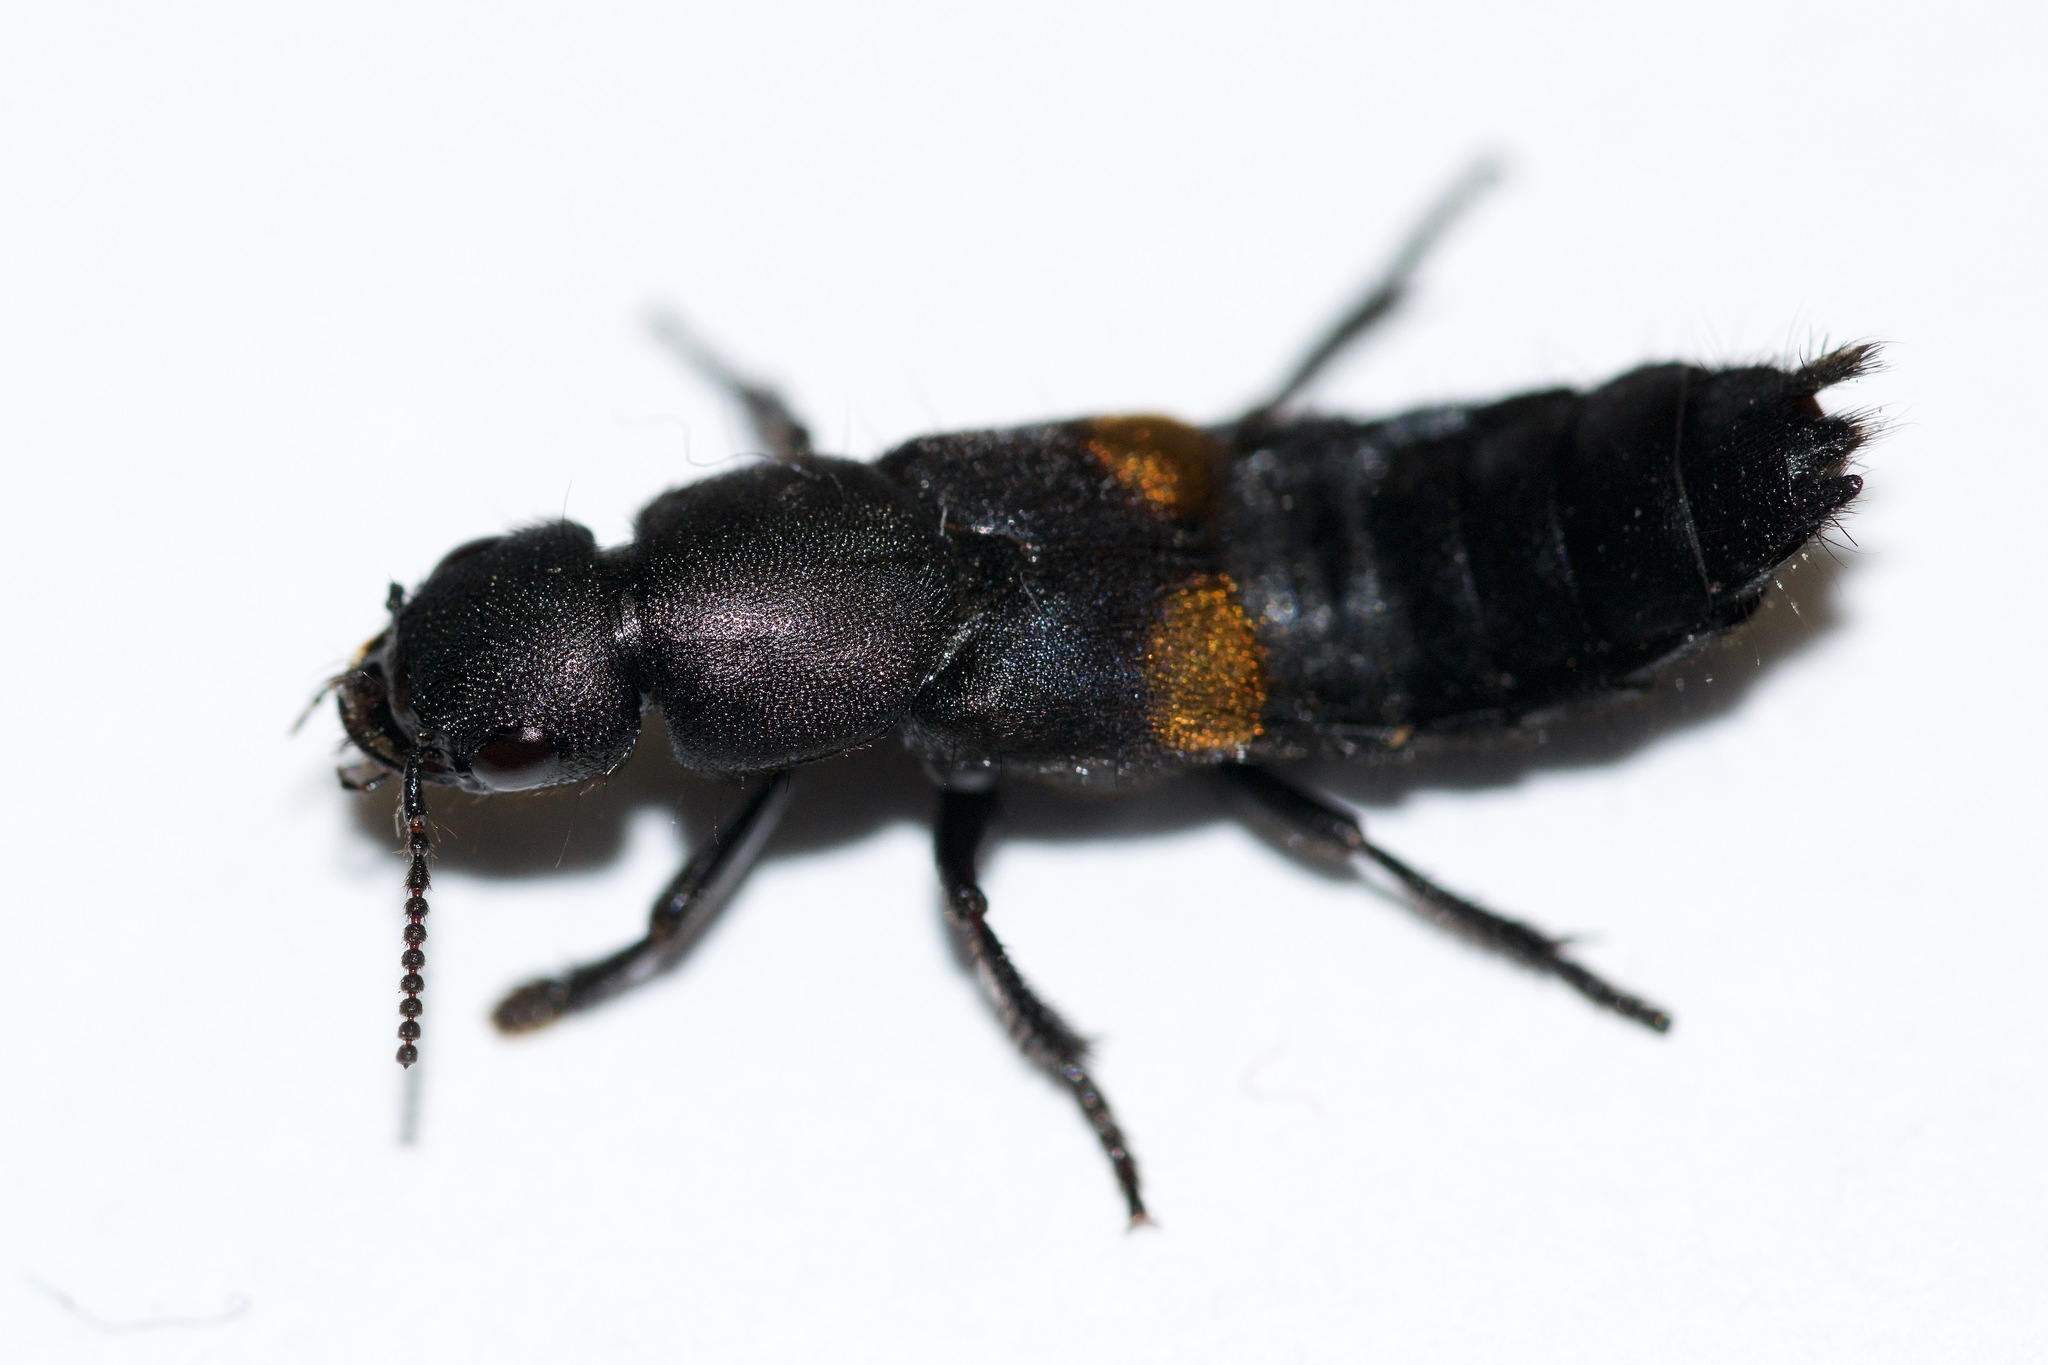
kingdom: Animalia
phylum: Arthropoda
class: Insecta
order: Coleoptera
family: Staphylinidae
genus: Platydracus
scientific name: Platydracus fossator
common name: Red-spotted rove beetle
